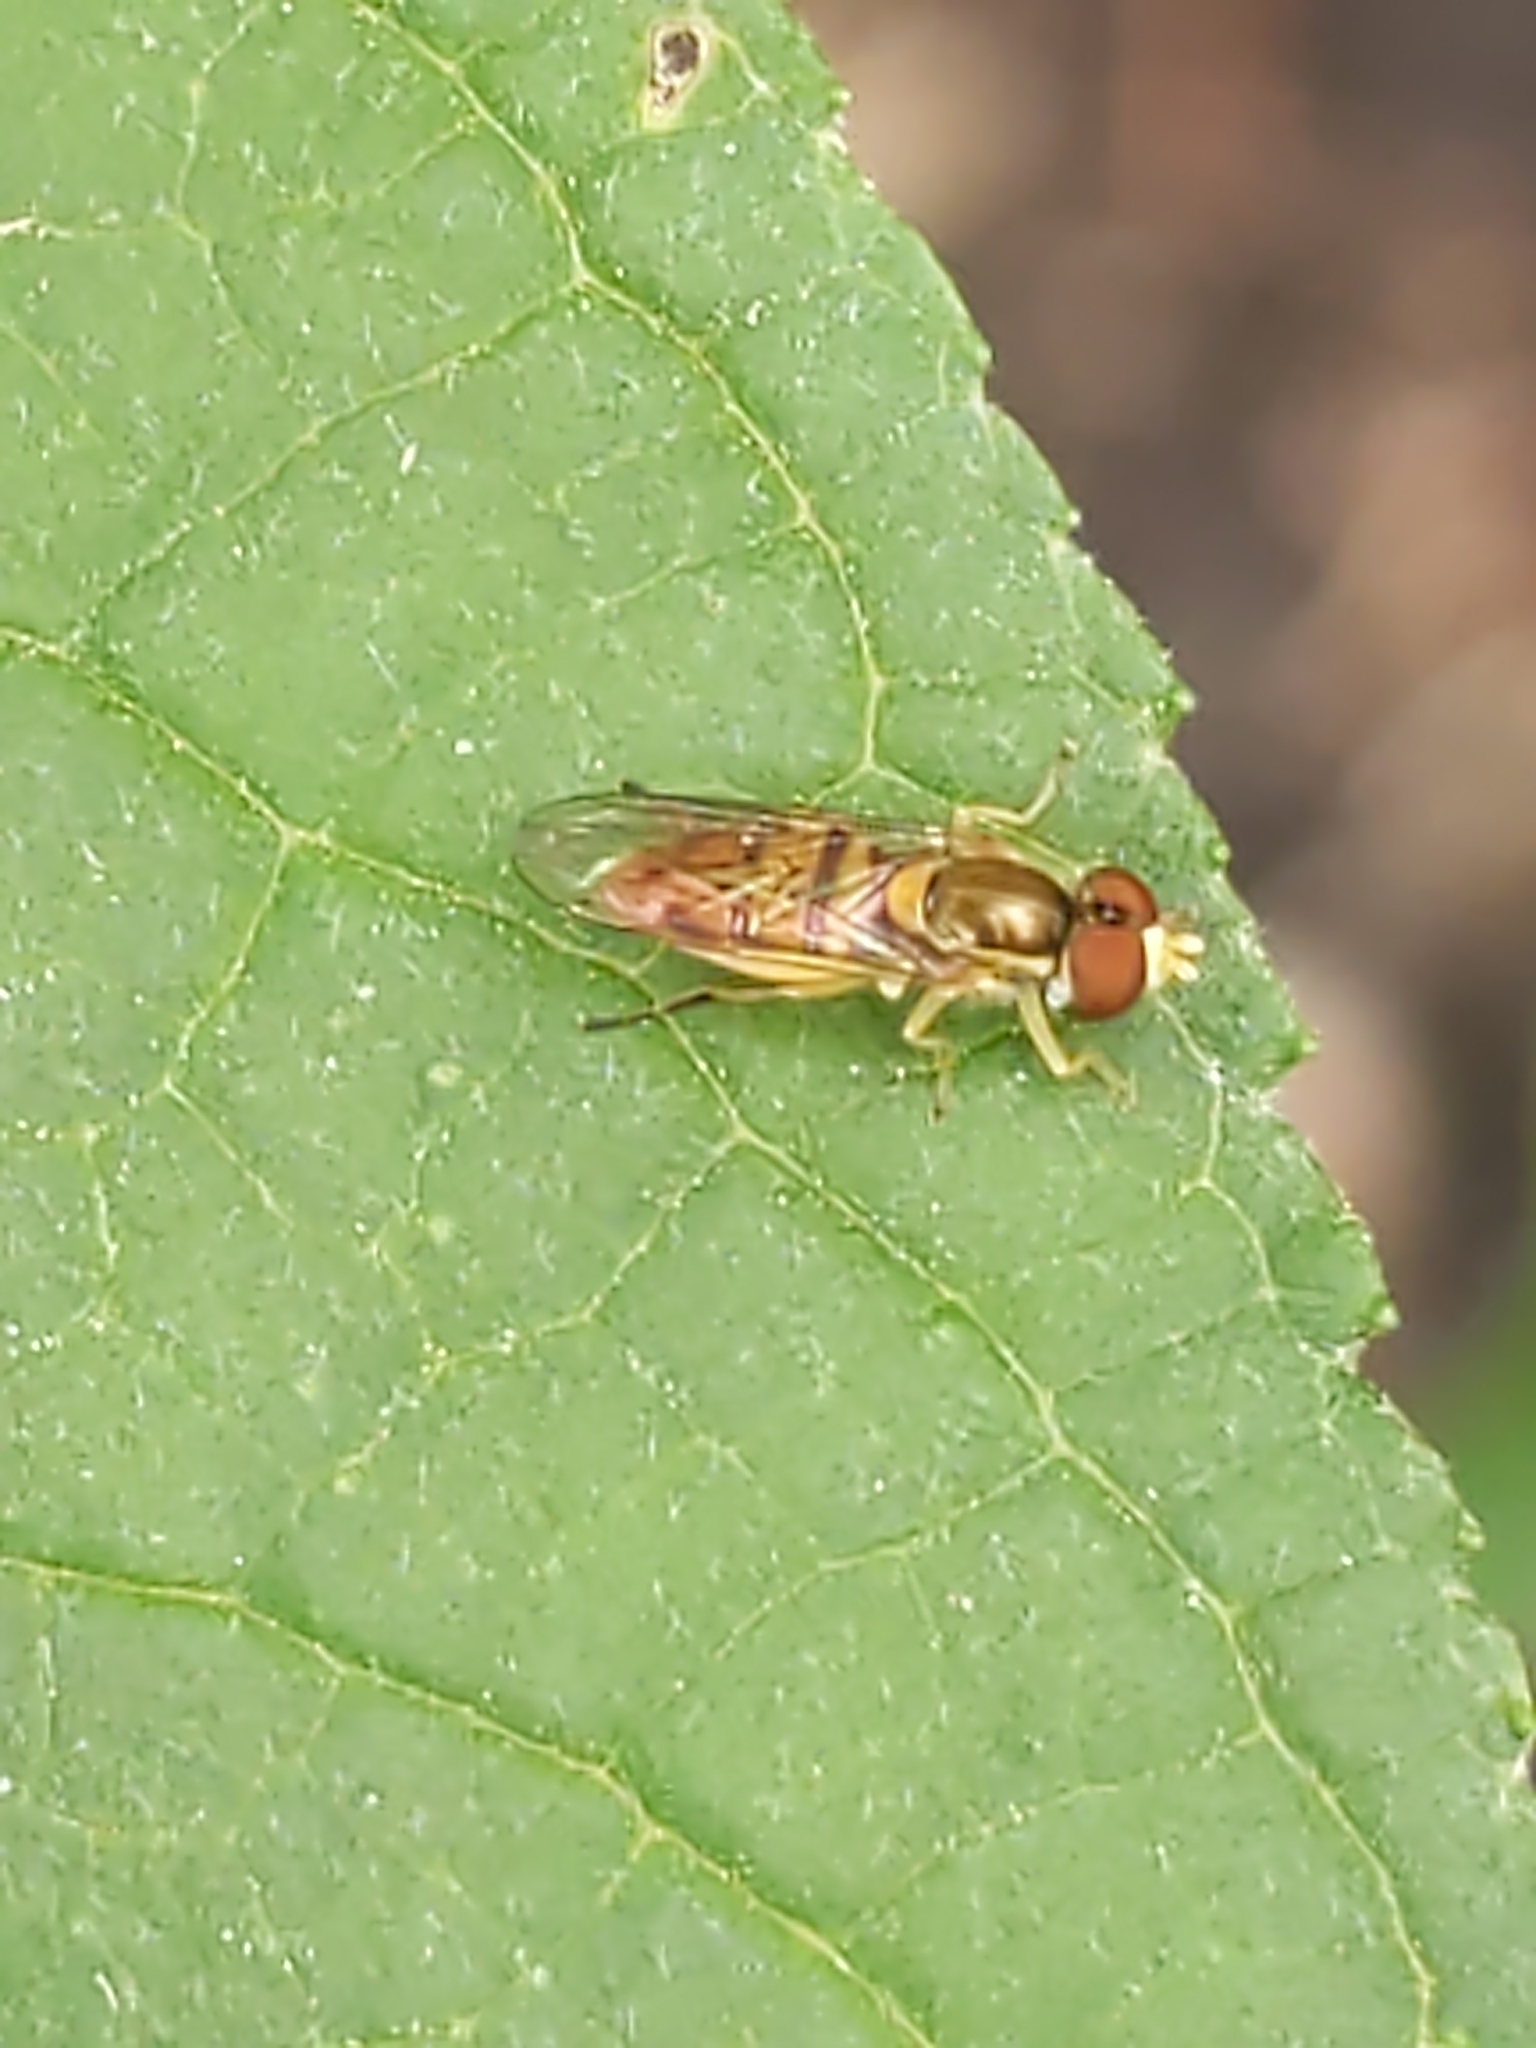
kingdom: Animalia
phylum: Arthropoda
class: Insecta
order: Diptera
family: Syrphidae
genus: Toxomerus
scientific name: Toxomerus marginatus
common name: Syrphid fly
